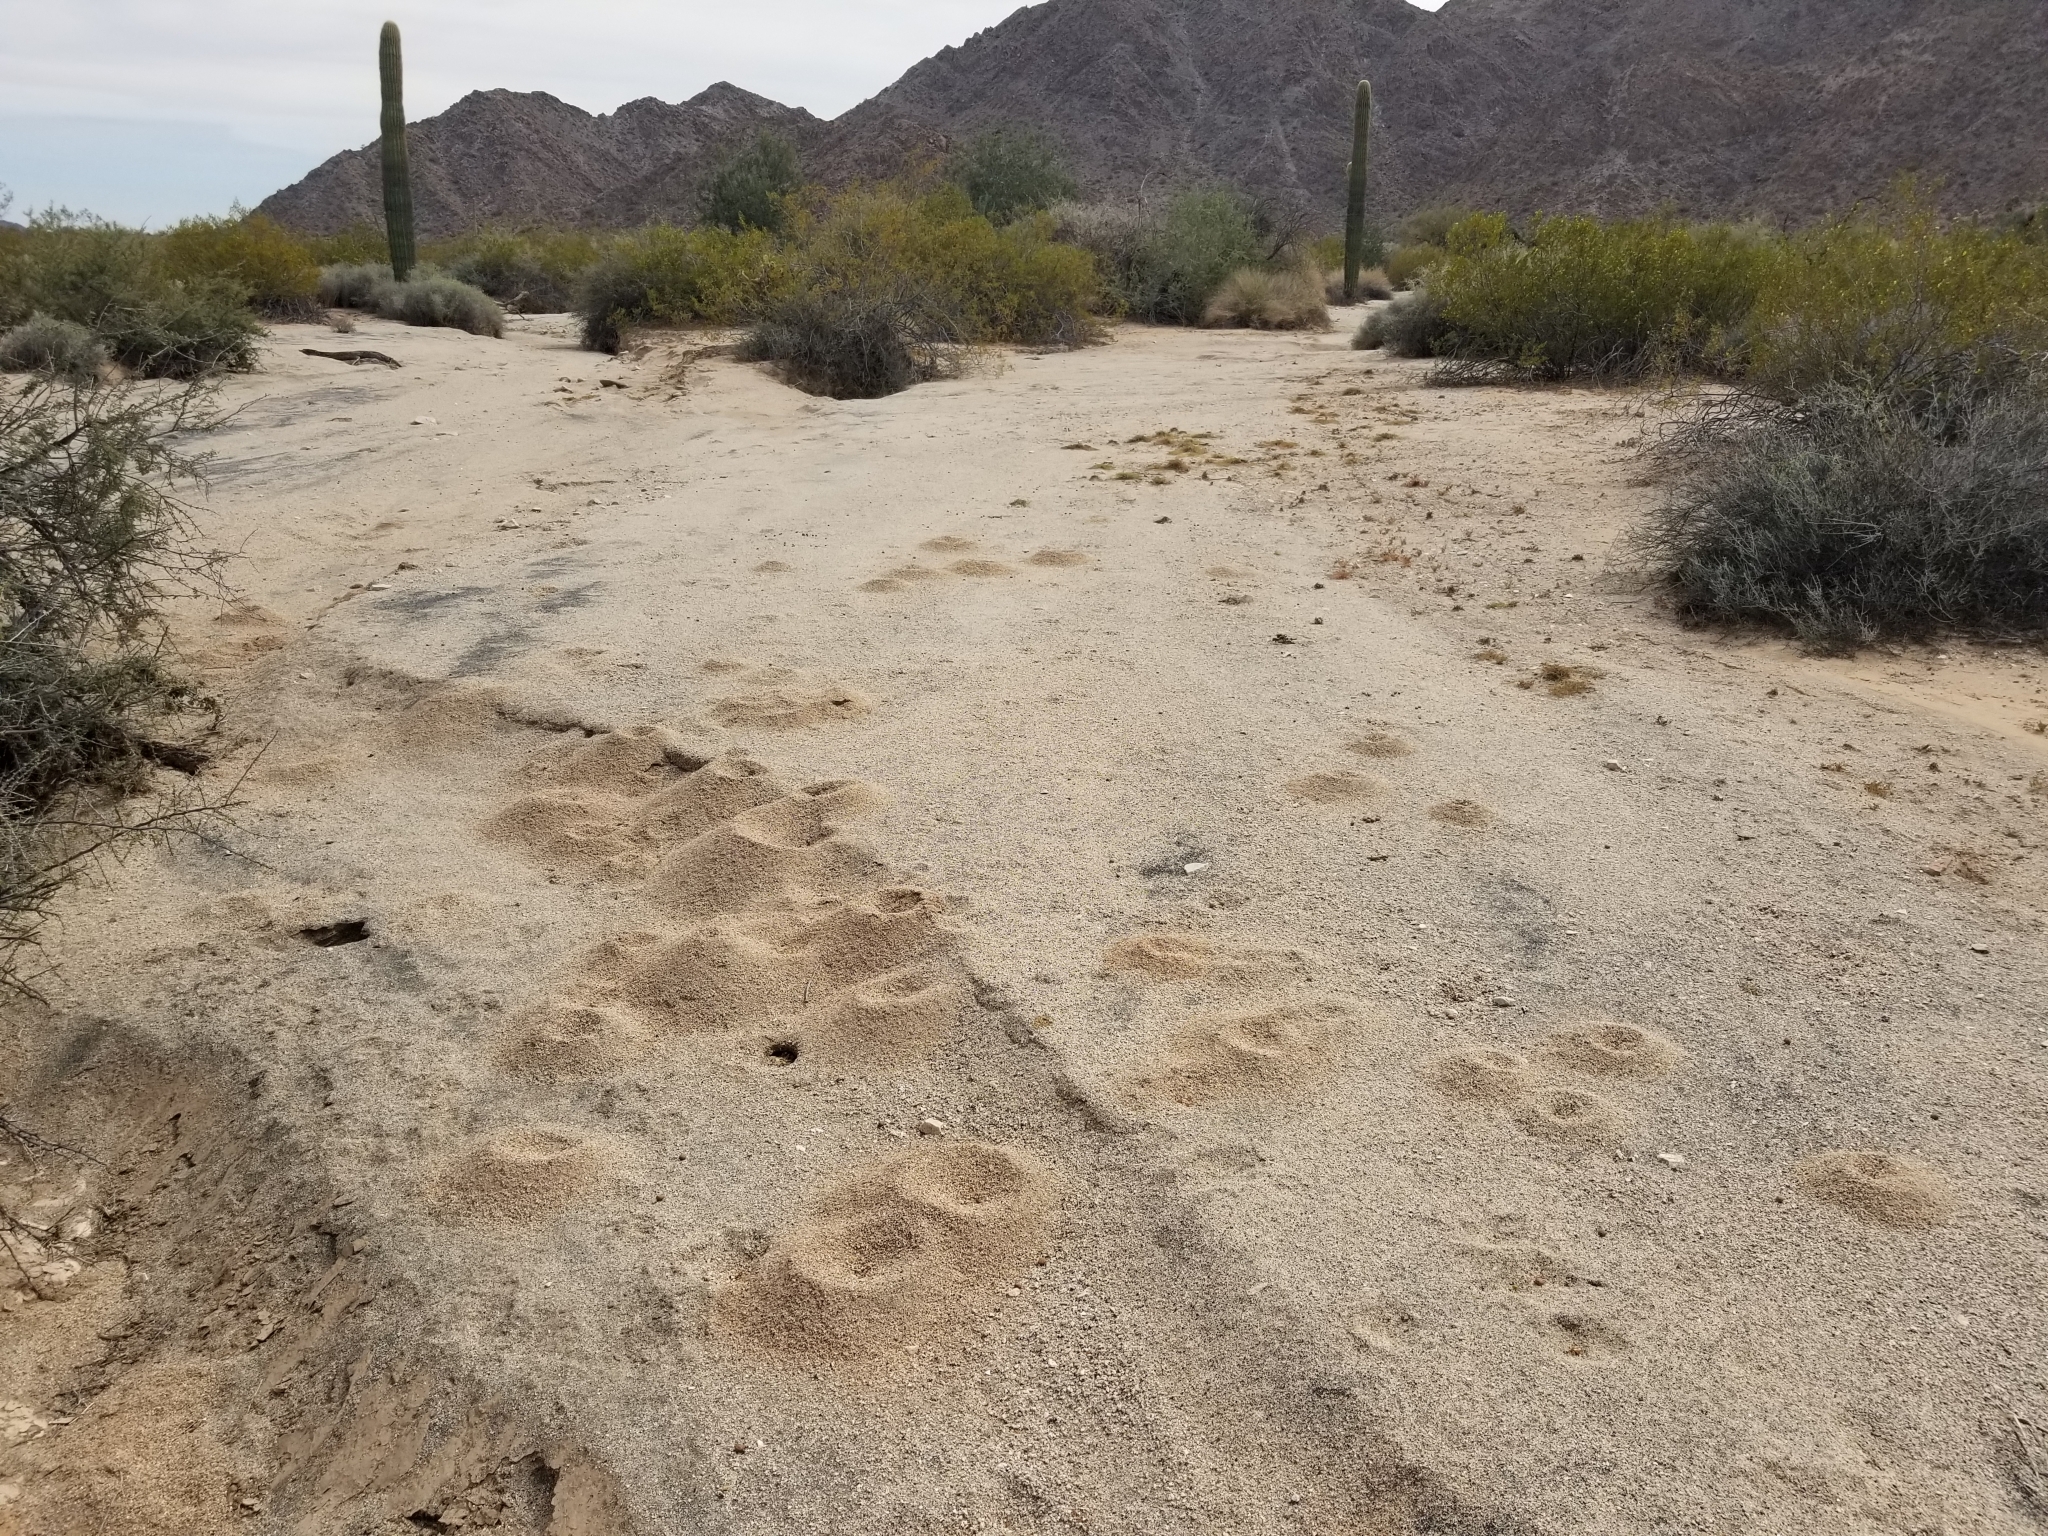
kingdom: Animalia
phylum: Arthropoda
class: Insecta
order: Hymenoptera
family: Formicidae
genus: Acromyrmex
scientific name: Acromyrmex versicolor
